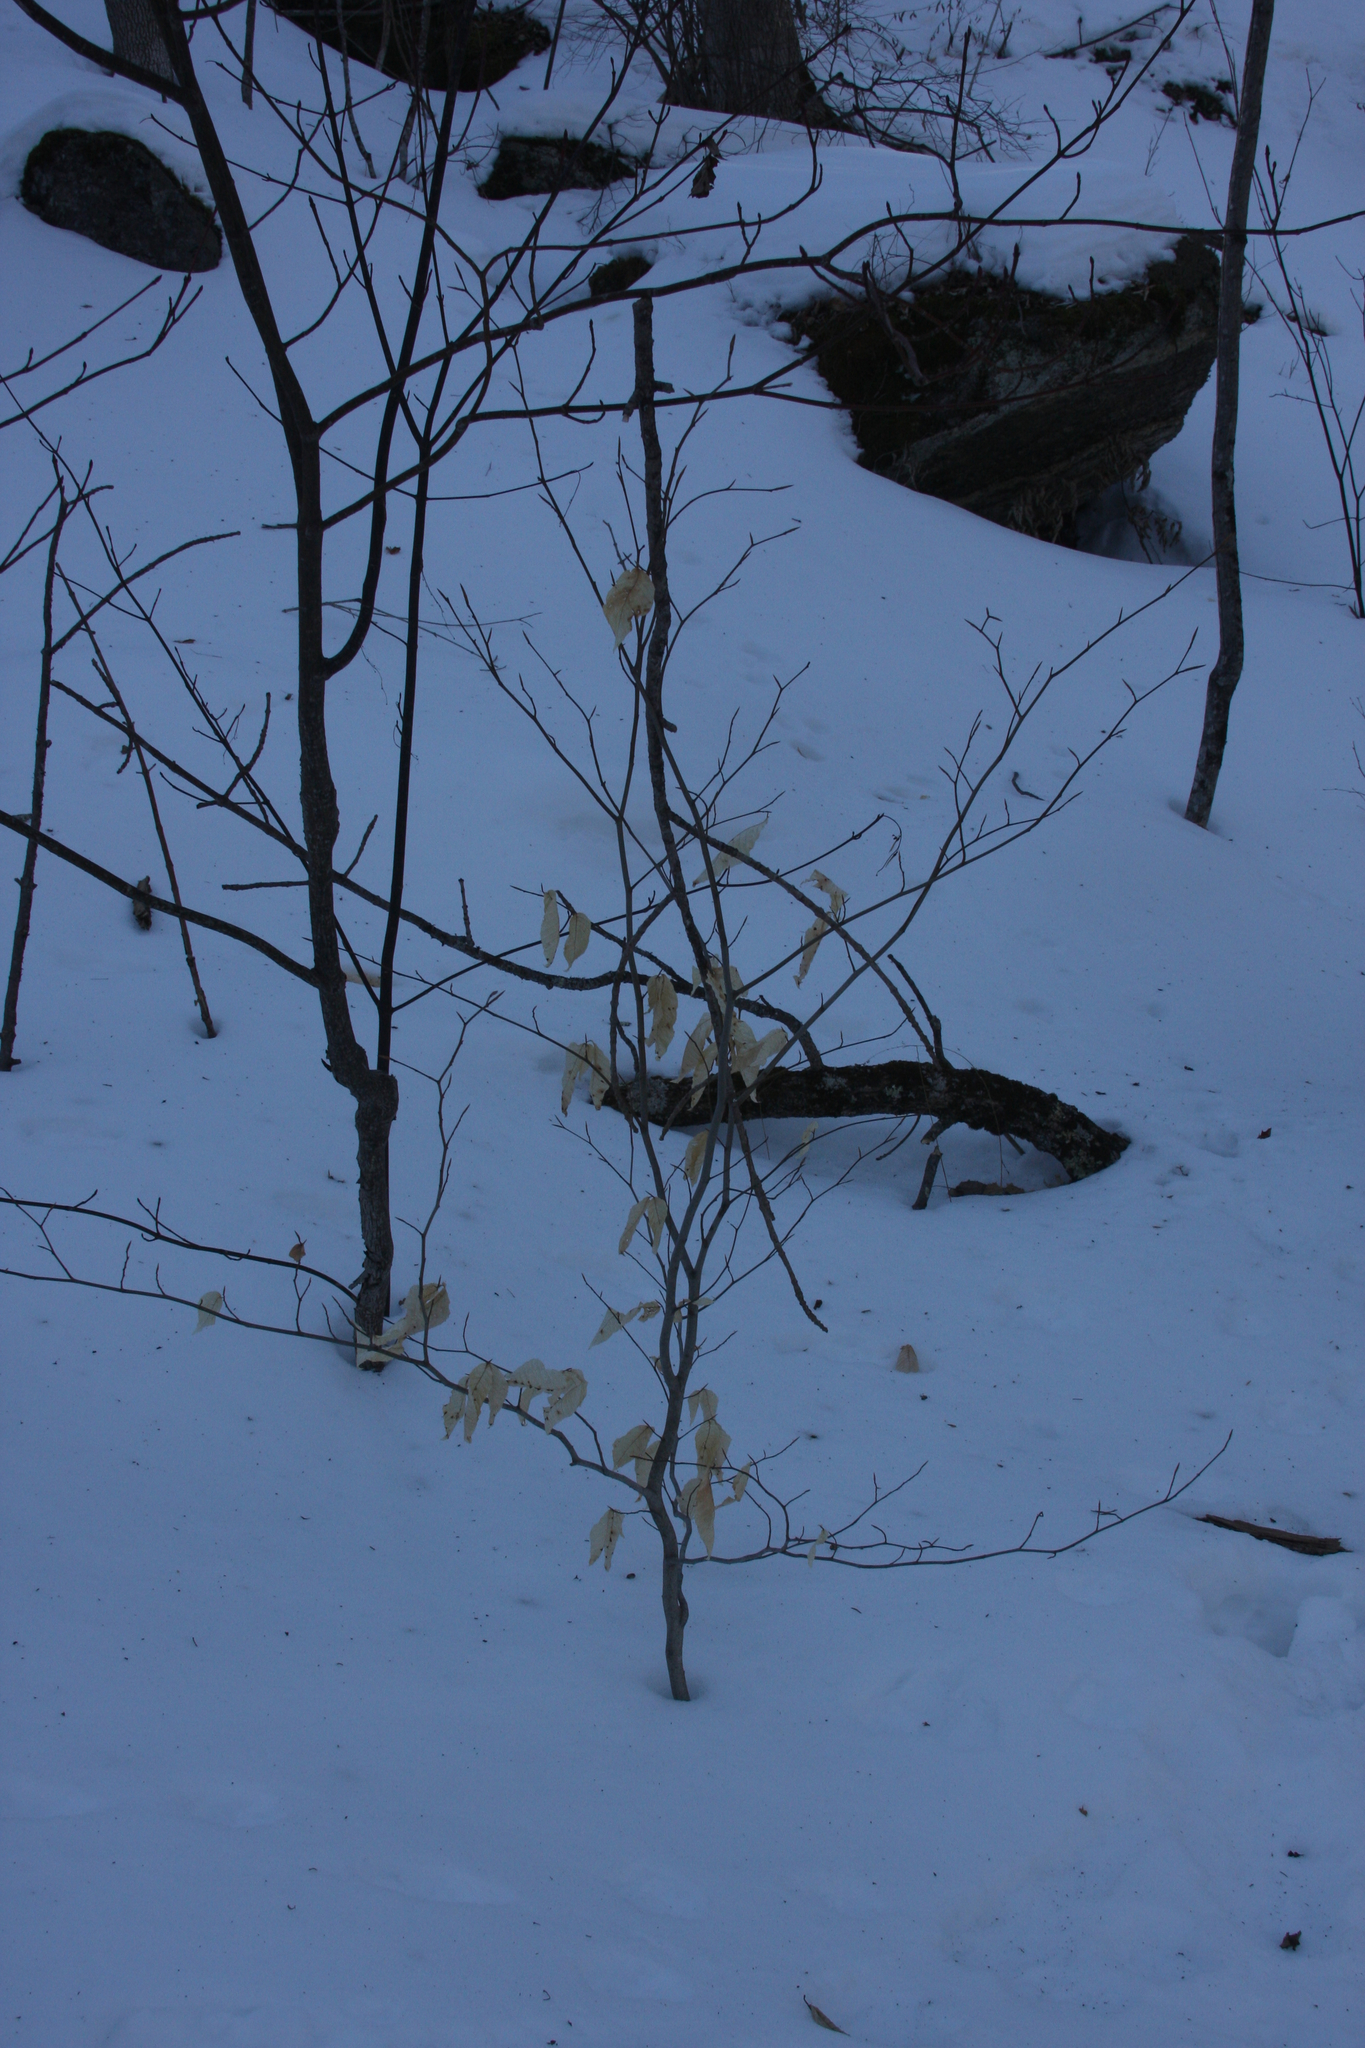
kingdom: Plantae
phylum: Tracheophyta
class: Magnoliopsida
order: Fagales
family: Fagaceae
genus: Fagus
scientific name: Fagus grandifolia
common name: American beech
